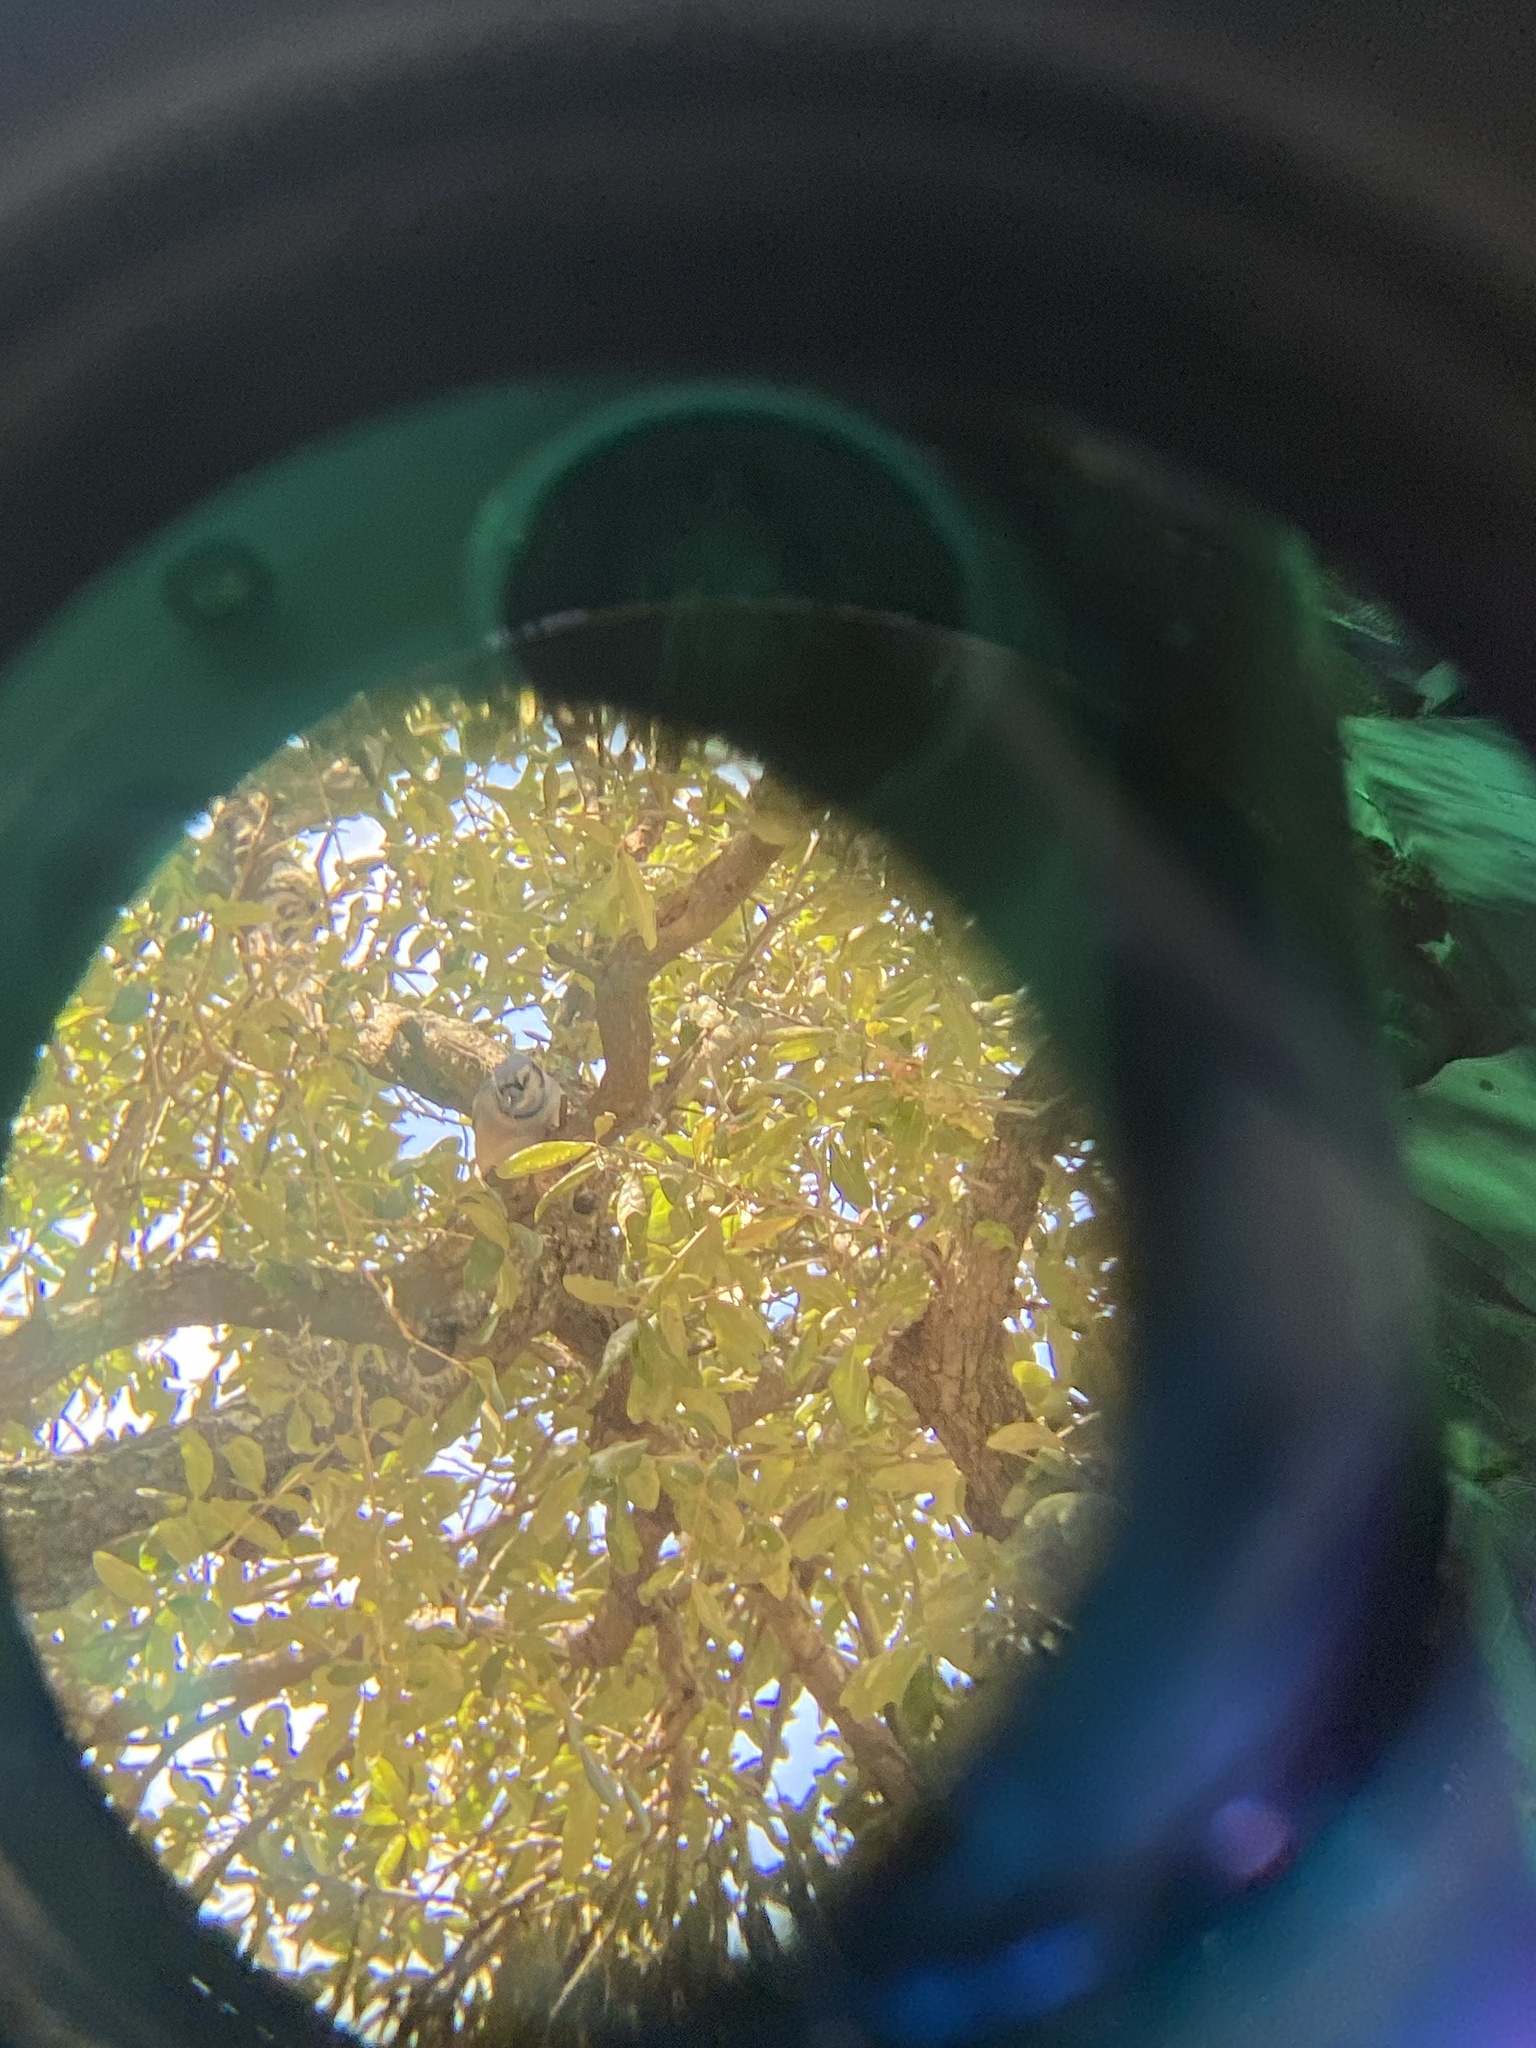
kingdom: Animalia
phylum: Chordata
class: Aves
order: Passeriformes
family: Corvidae
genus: Cyanocitta
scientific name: Cyanocitta cristata
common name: Blue jay
